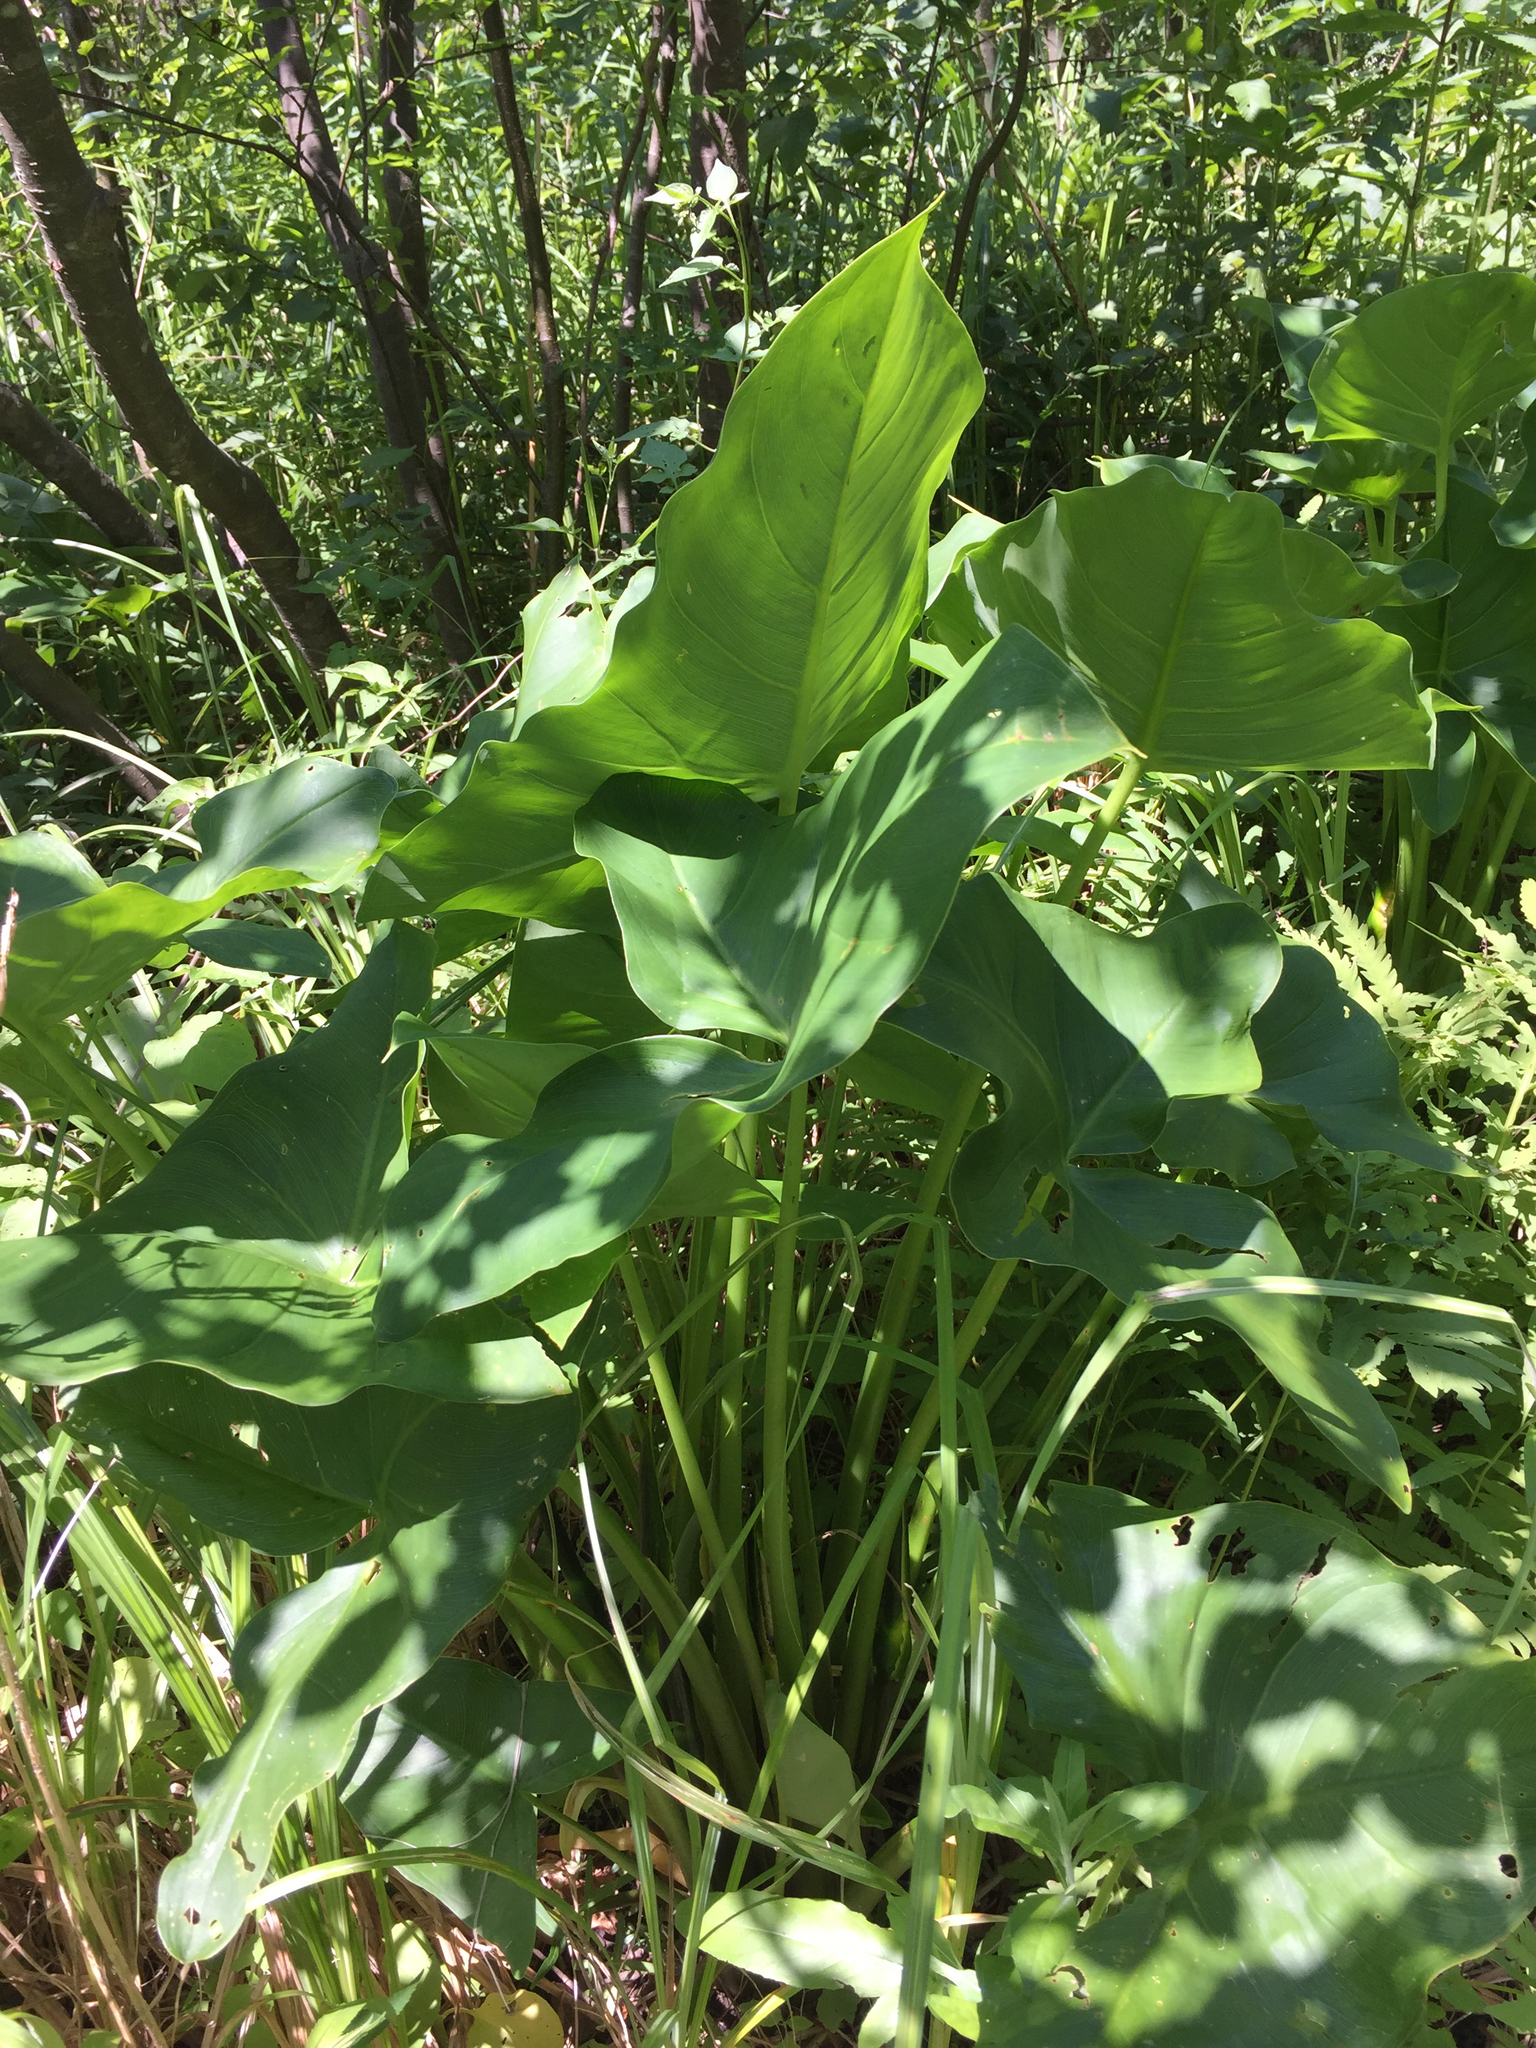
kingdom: Plantae
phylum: Tracheophyta
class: Liliopsida
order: Alismatales
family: Araceae
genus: Peltandra
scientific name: Peltandra virginica
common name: Arrow arum
